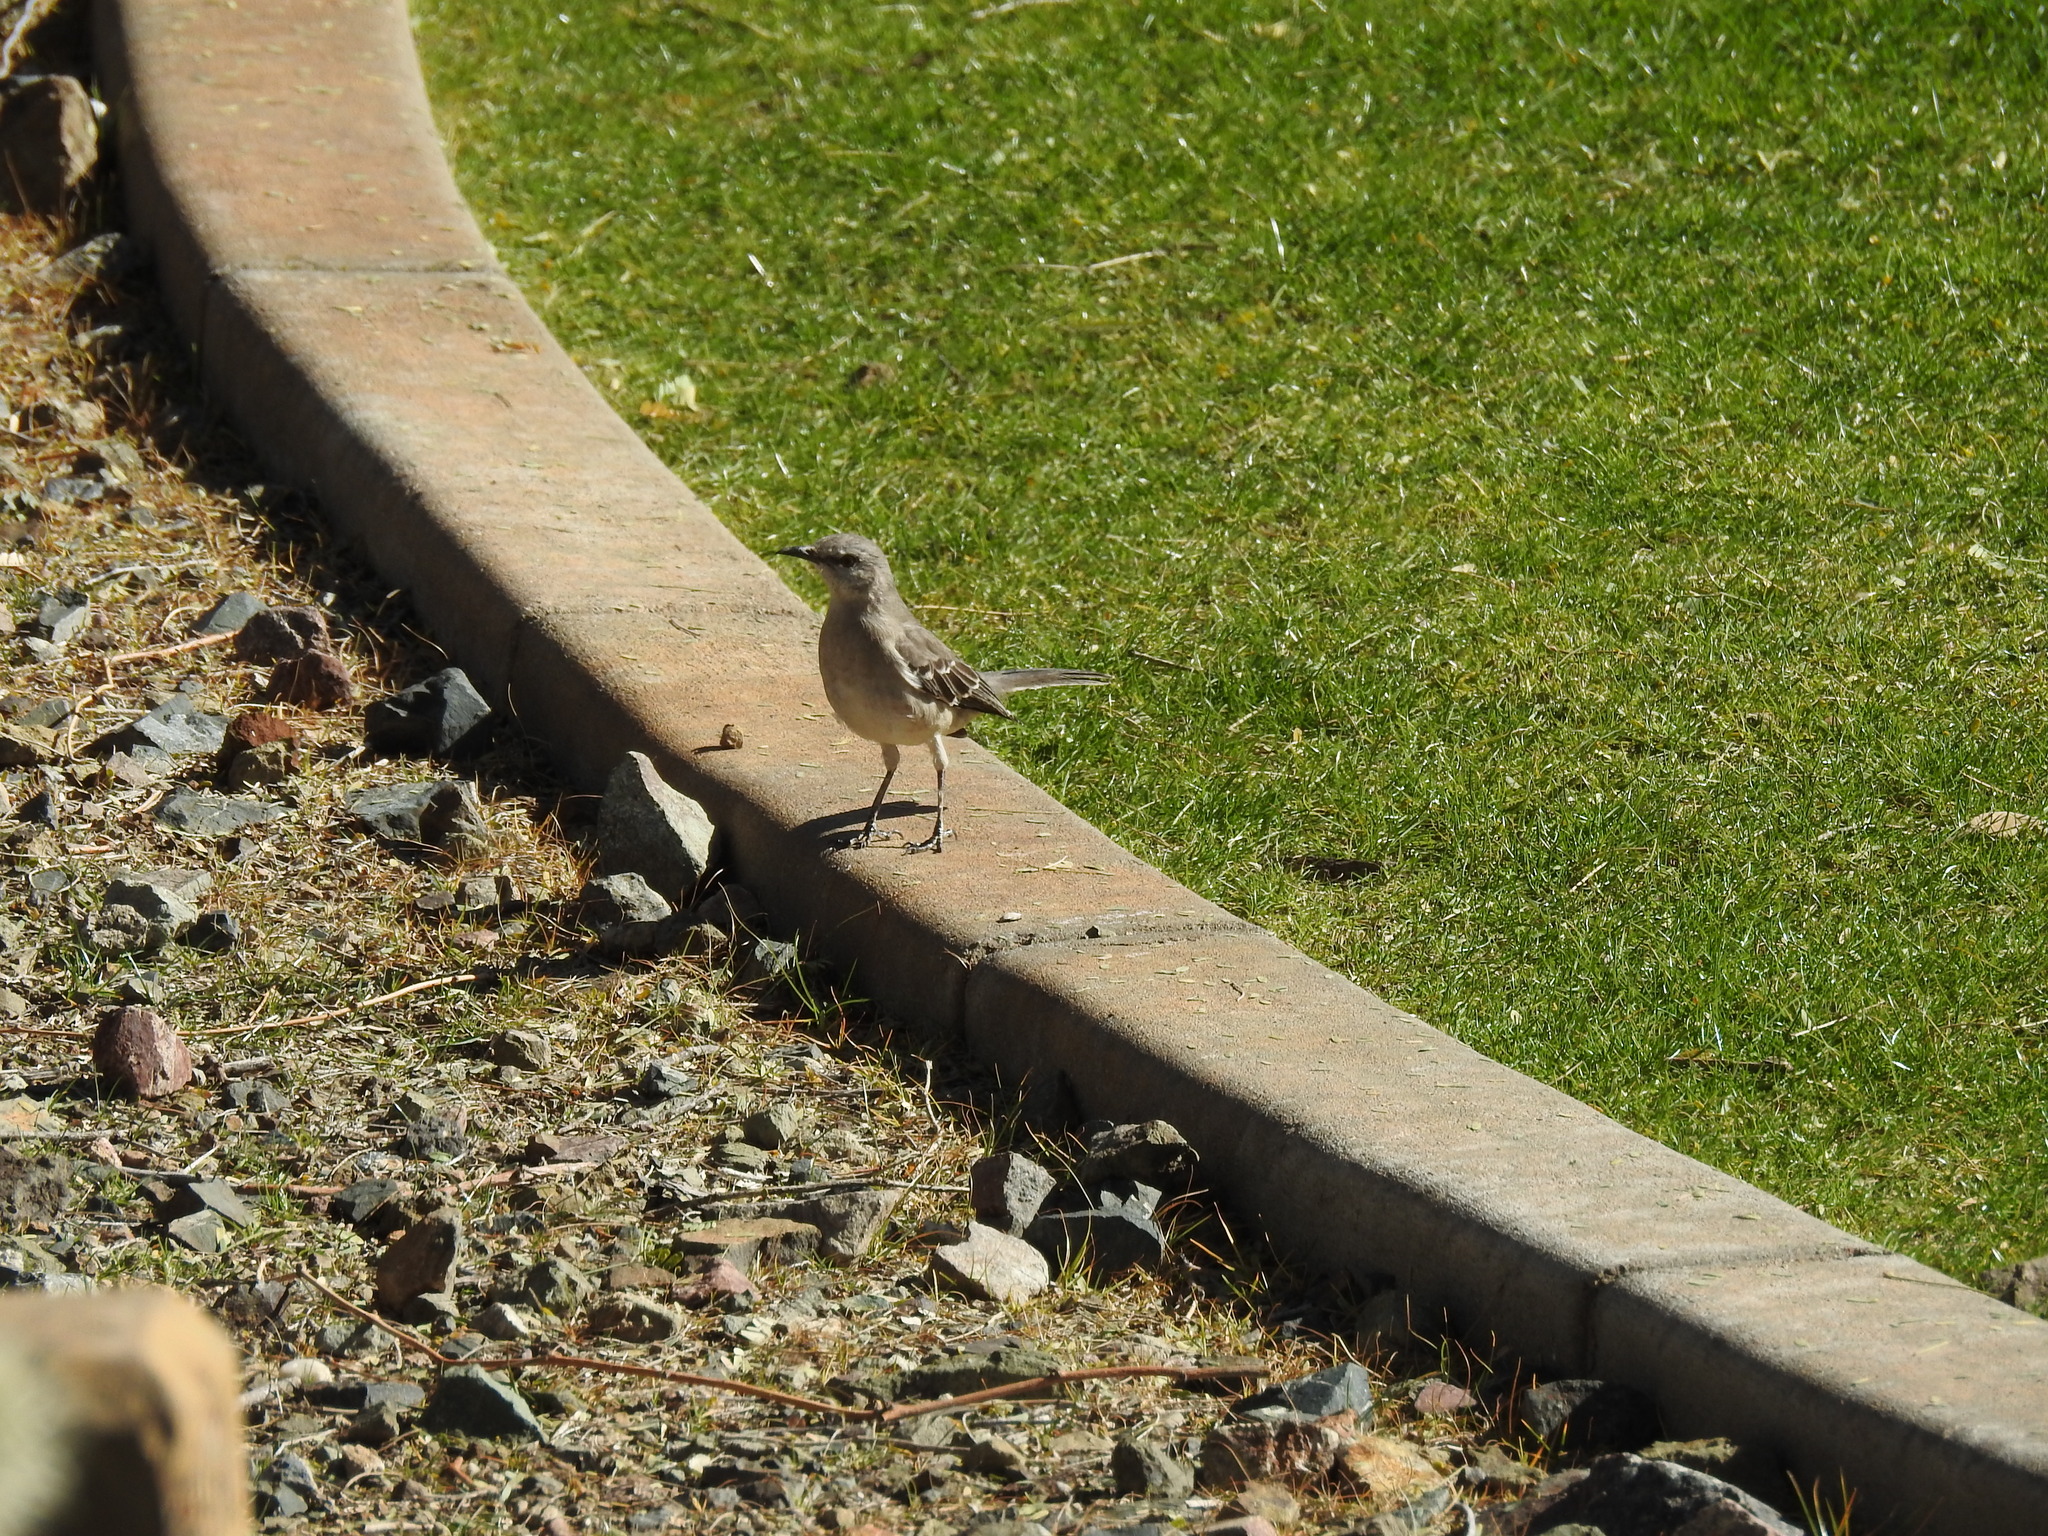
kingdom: Animalia
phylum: Chordata
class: Aves
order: Passeriformes
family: Mimidae
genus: Mimus
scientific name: Mimus polyglottos
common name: Northern mockingbird
